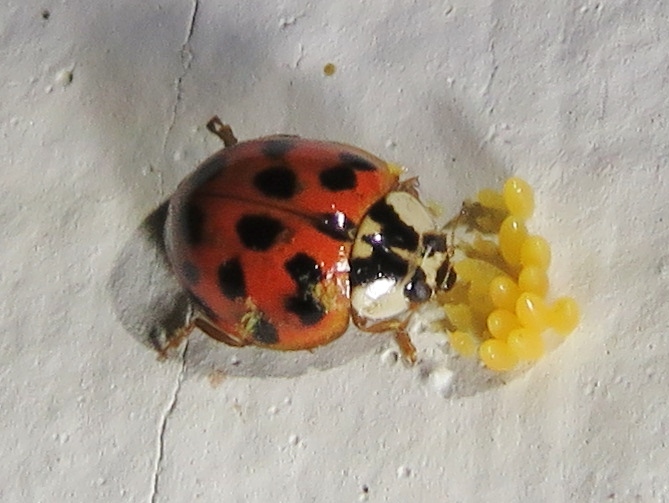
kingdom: Animalia
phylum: Arthropoda
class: Insecta
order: Coleoptera
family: Coccinellidae
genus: Harmonia
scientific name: Harmonia axyridis
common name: Harlequin ladybird
